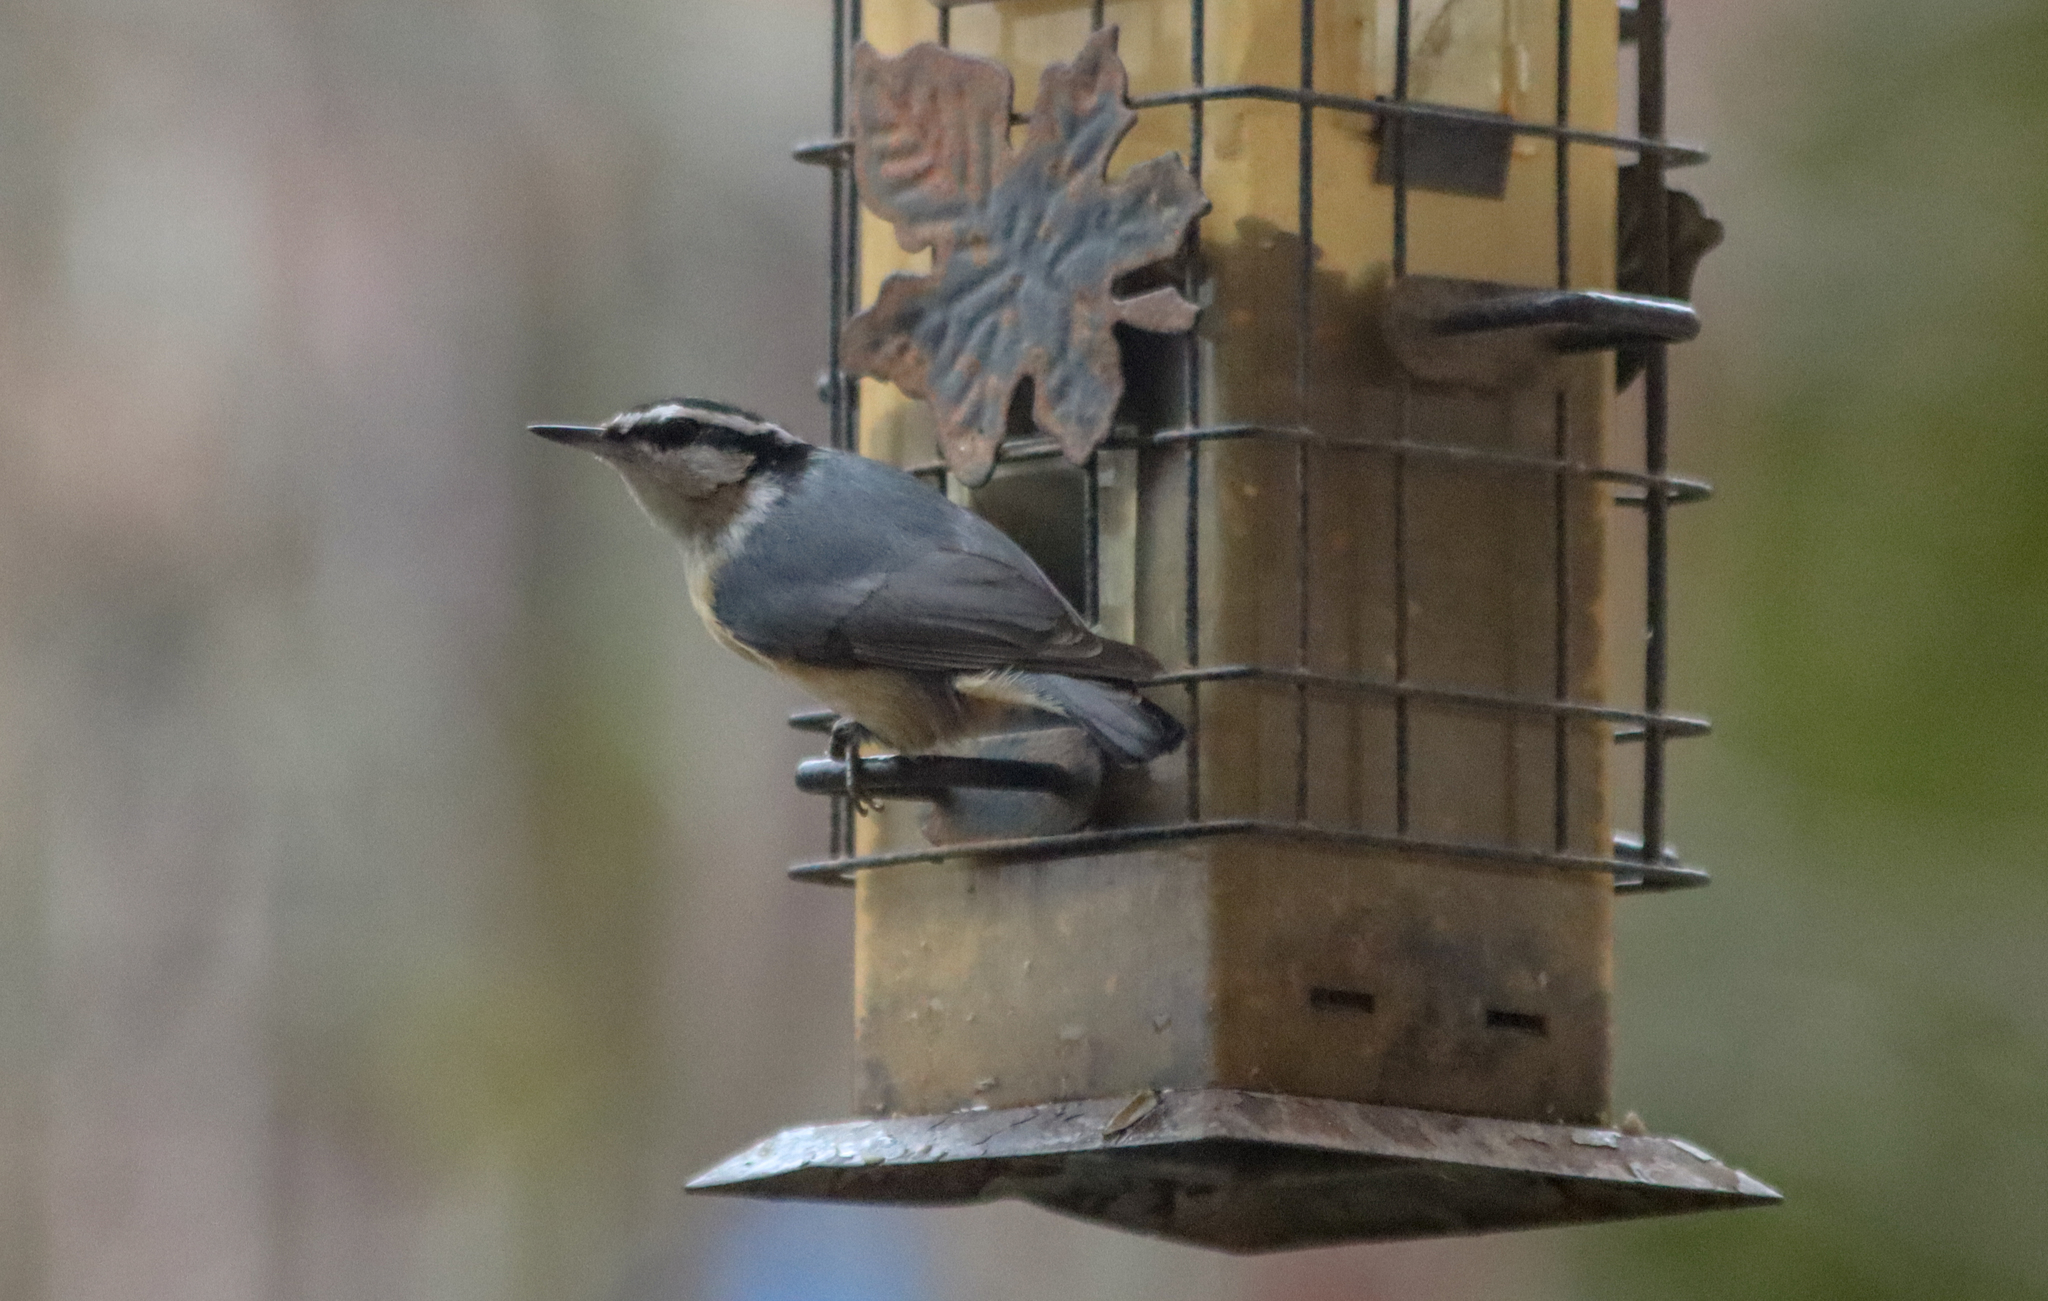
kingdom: Animalia
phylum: Chordata
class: Aves
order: Passeriformes
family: Sittidae
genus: Sitta
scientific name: Sitta canadensis
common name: Red-breasted nuthatch
